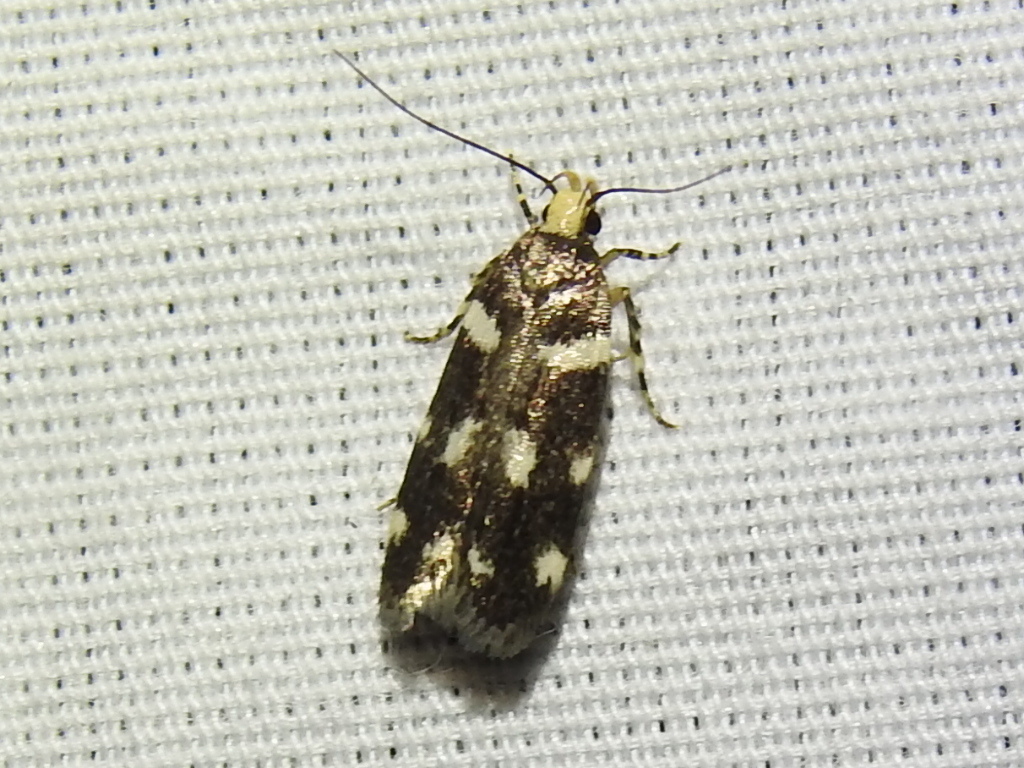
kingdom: Animalia
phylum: Arthropoda
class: Insecta
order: Lepidoptera
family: Gelechiidae
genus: Fascista
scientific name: Fascista quinella
